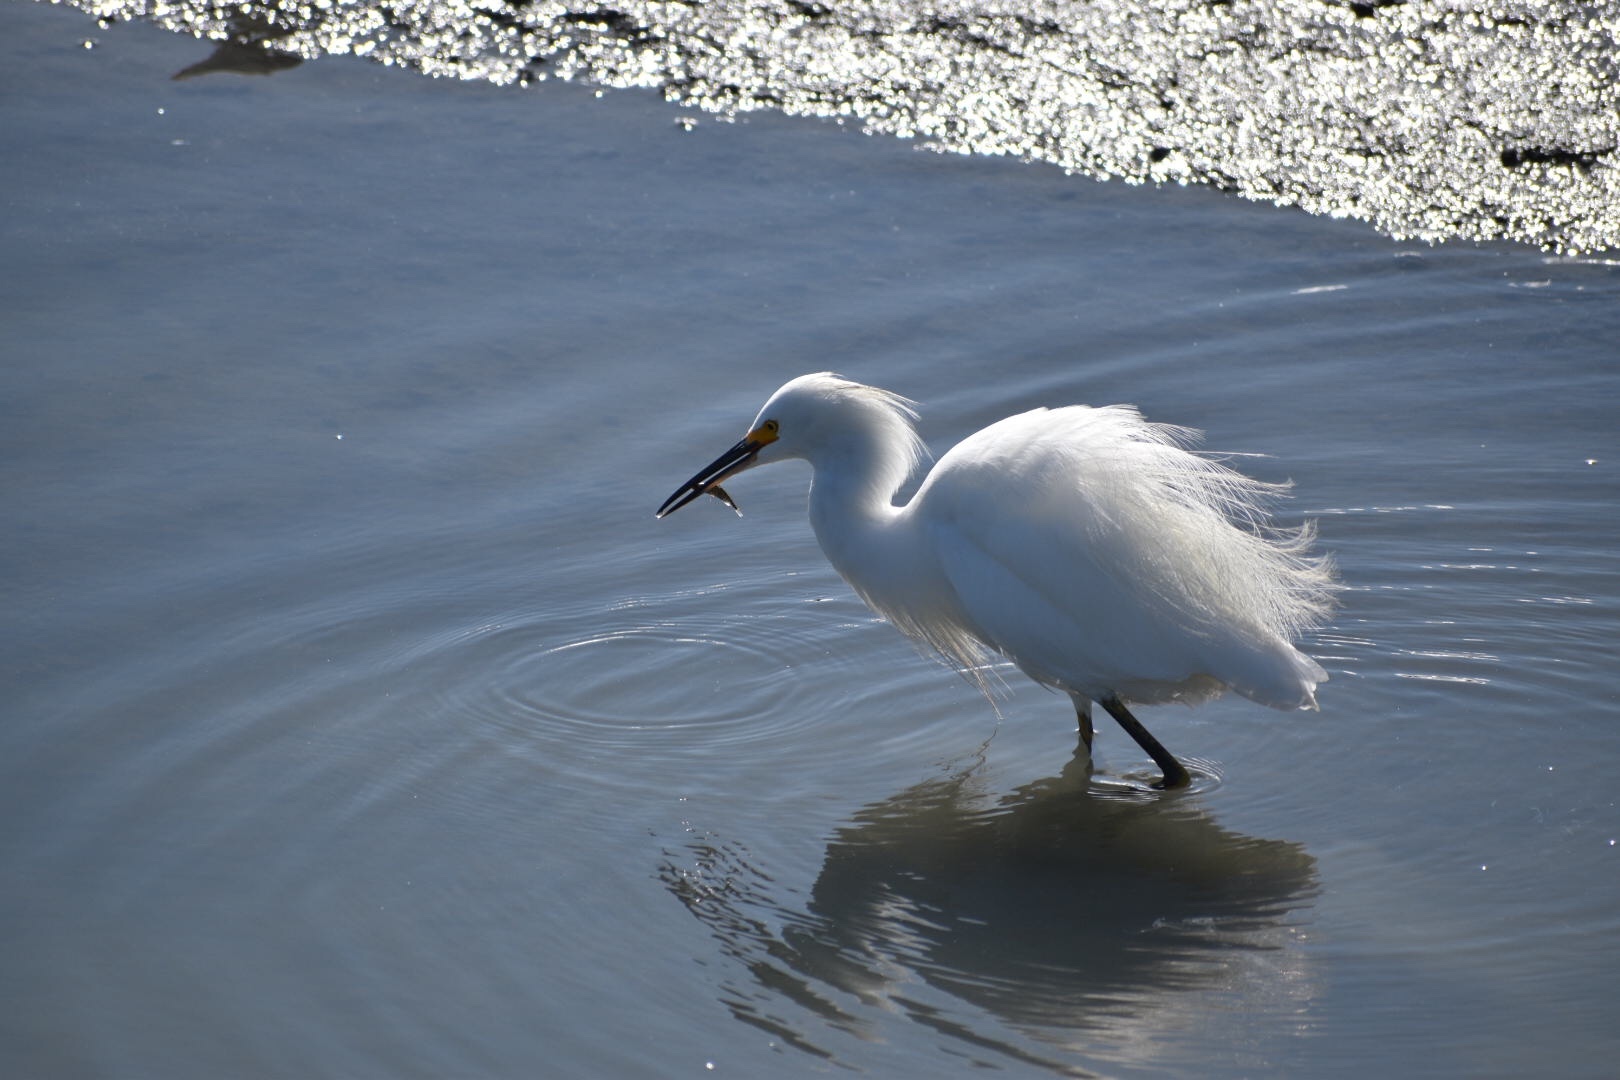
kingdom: Animalia
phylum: Chordata
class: Aves
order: Pelecaniformes
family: Ardeidae
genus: Egretta
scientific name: Egretta thula
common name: Snowy egret
